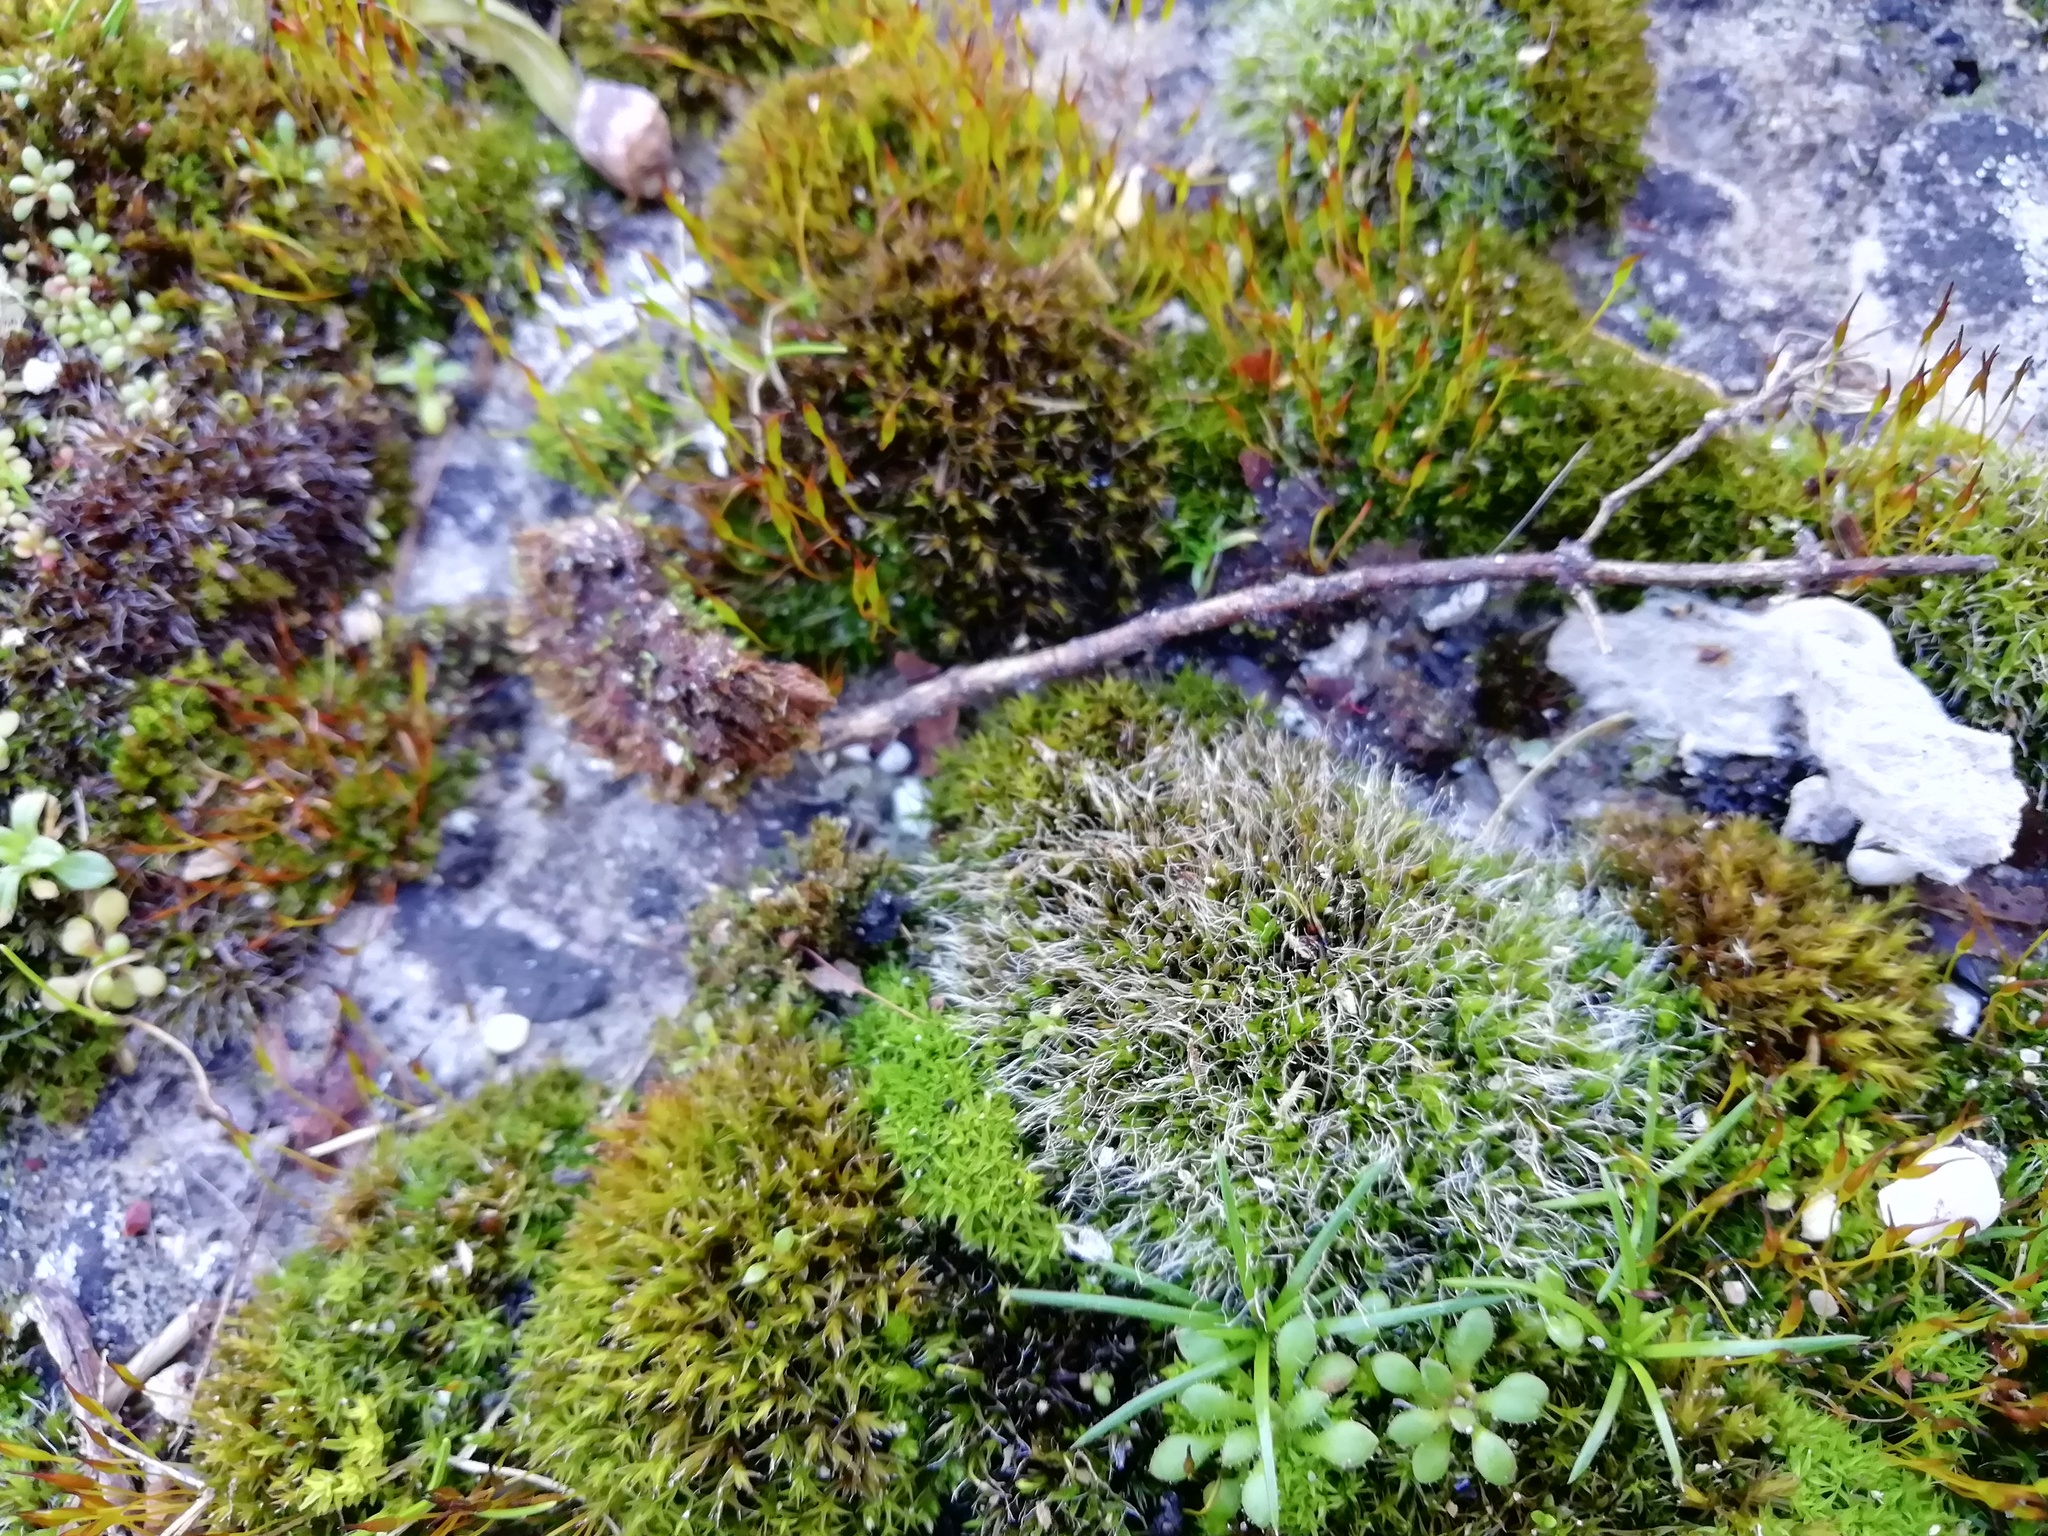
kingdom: Plantae
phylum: Bryophyta
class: Bryopsida
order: Grimmiales
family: Grimmiaceae
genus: Grimmia
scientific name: Grimmia pulvinata
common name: Grey-cushioned grimmia
